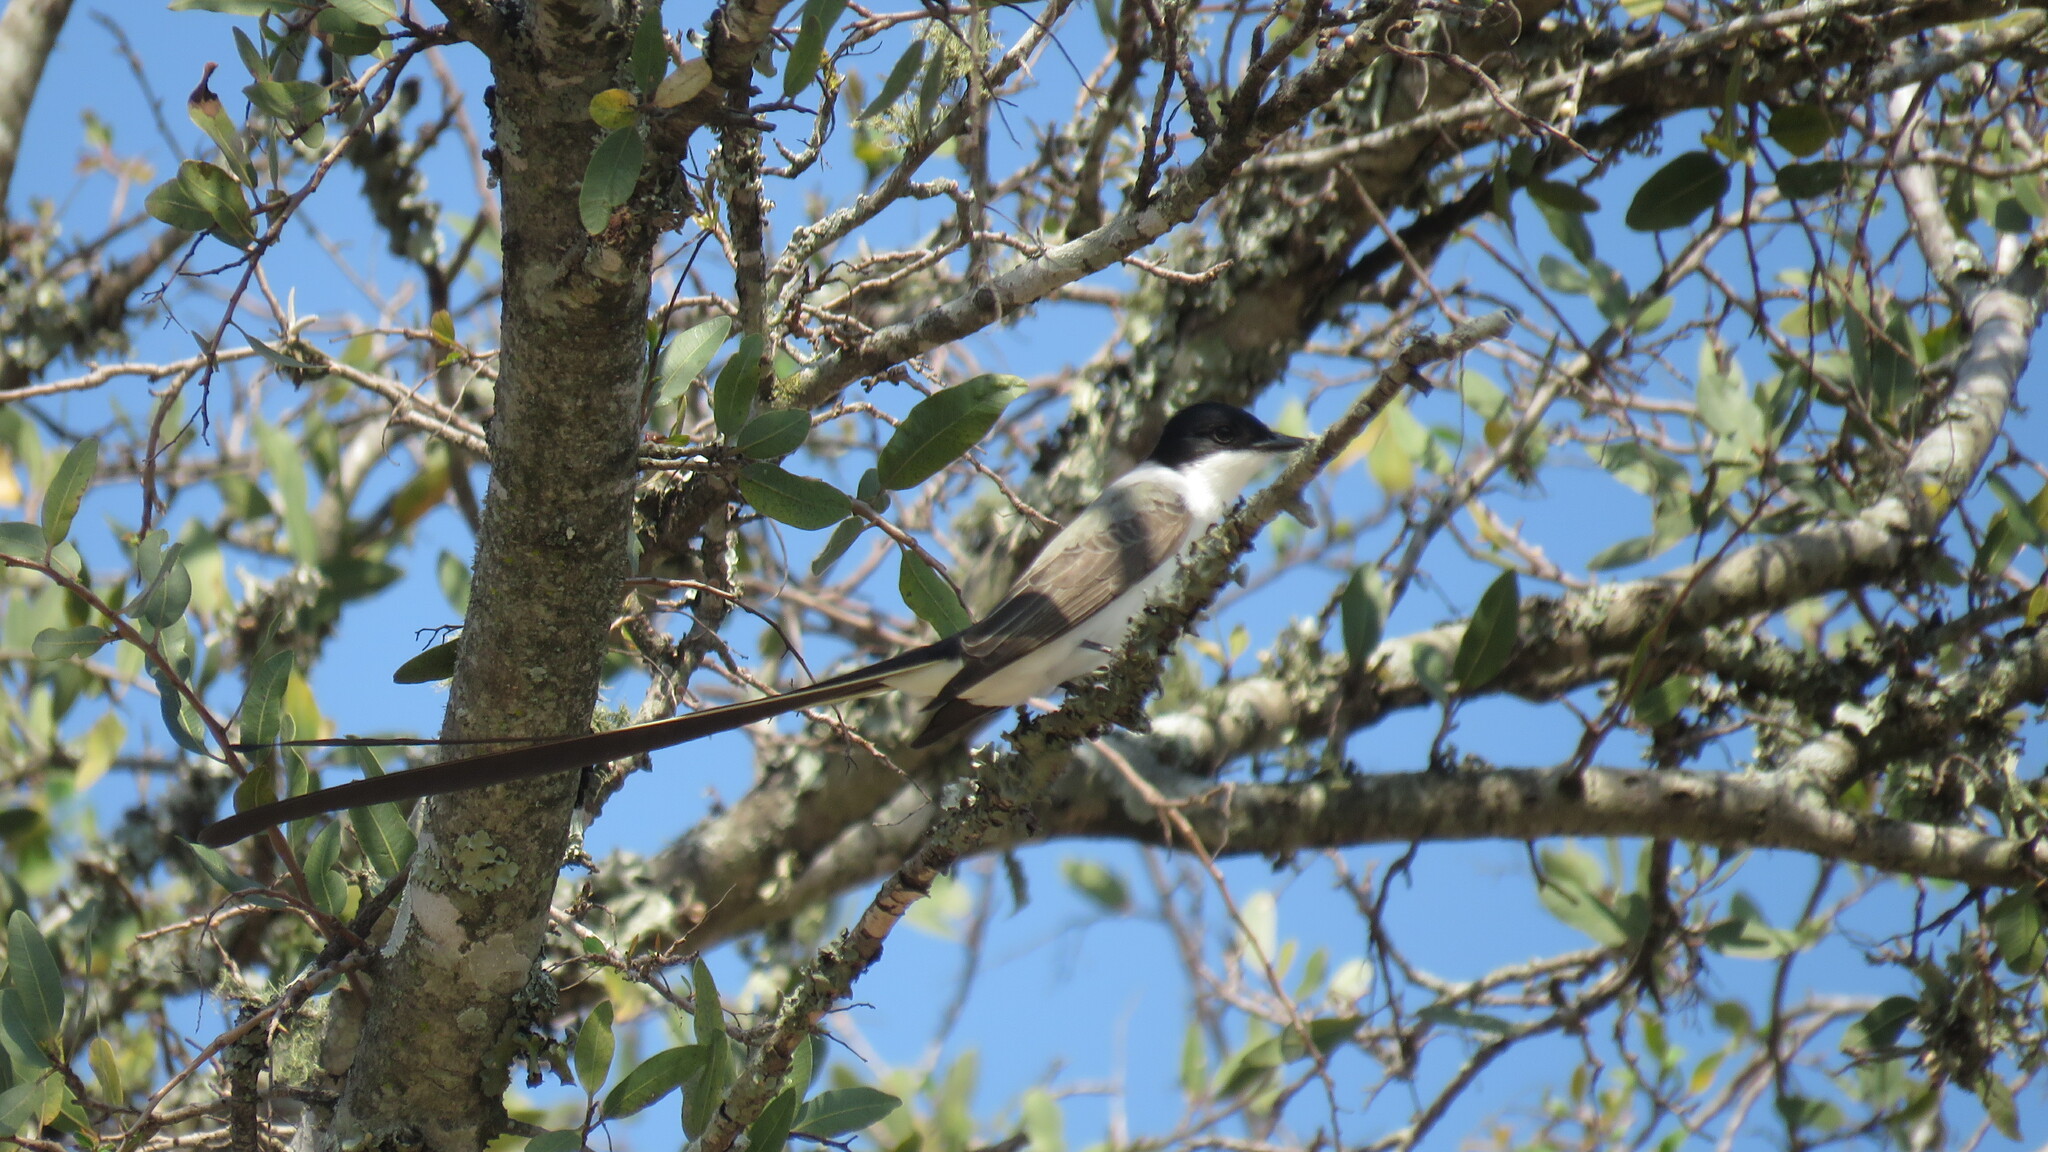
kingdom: Animalia
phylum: Chordata
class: Aves
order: Passeriformes
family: Tyrannidae
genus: Tyrannus
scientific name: Tyrannus savana
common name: Fork-tailed flycatcher
